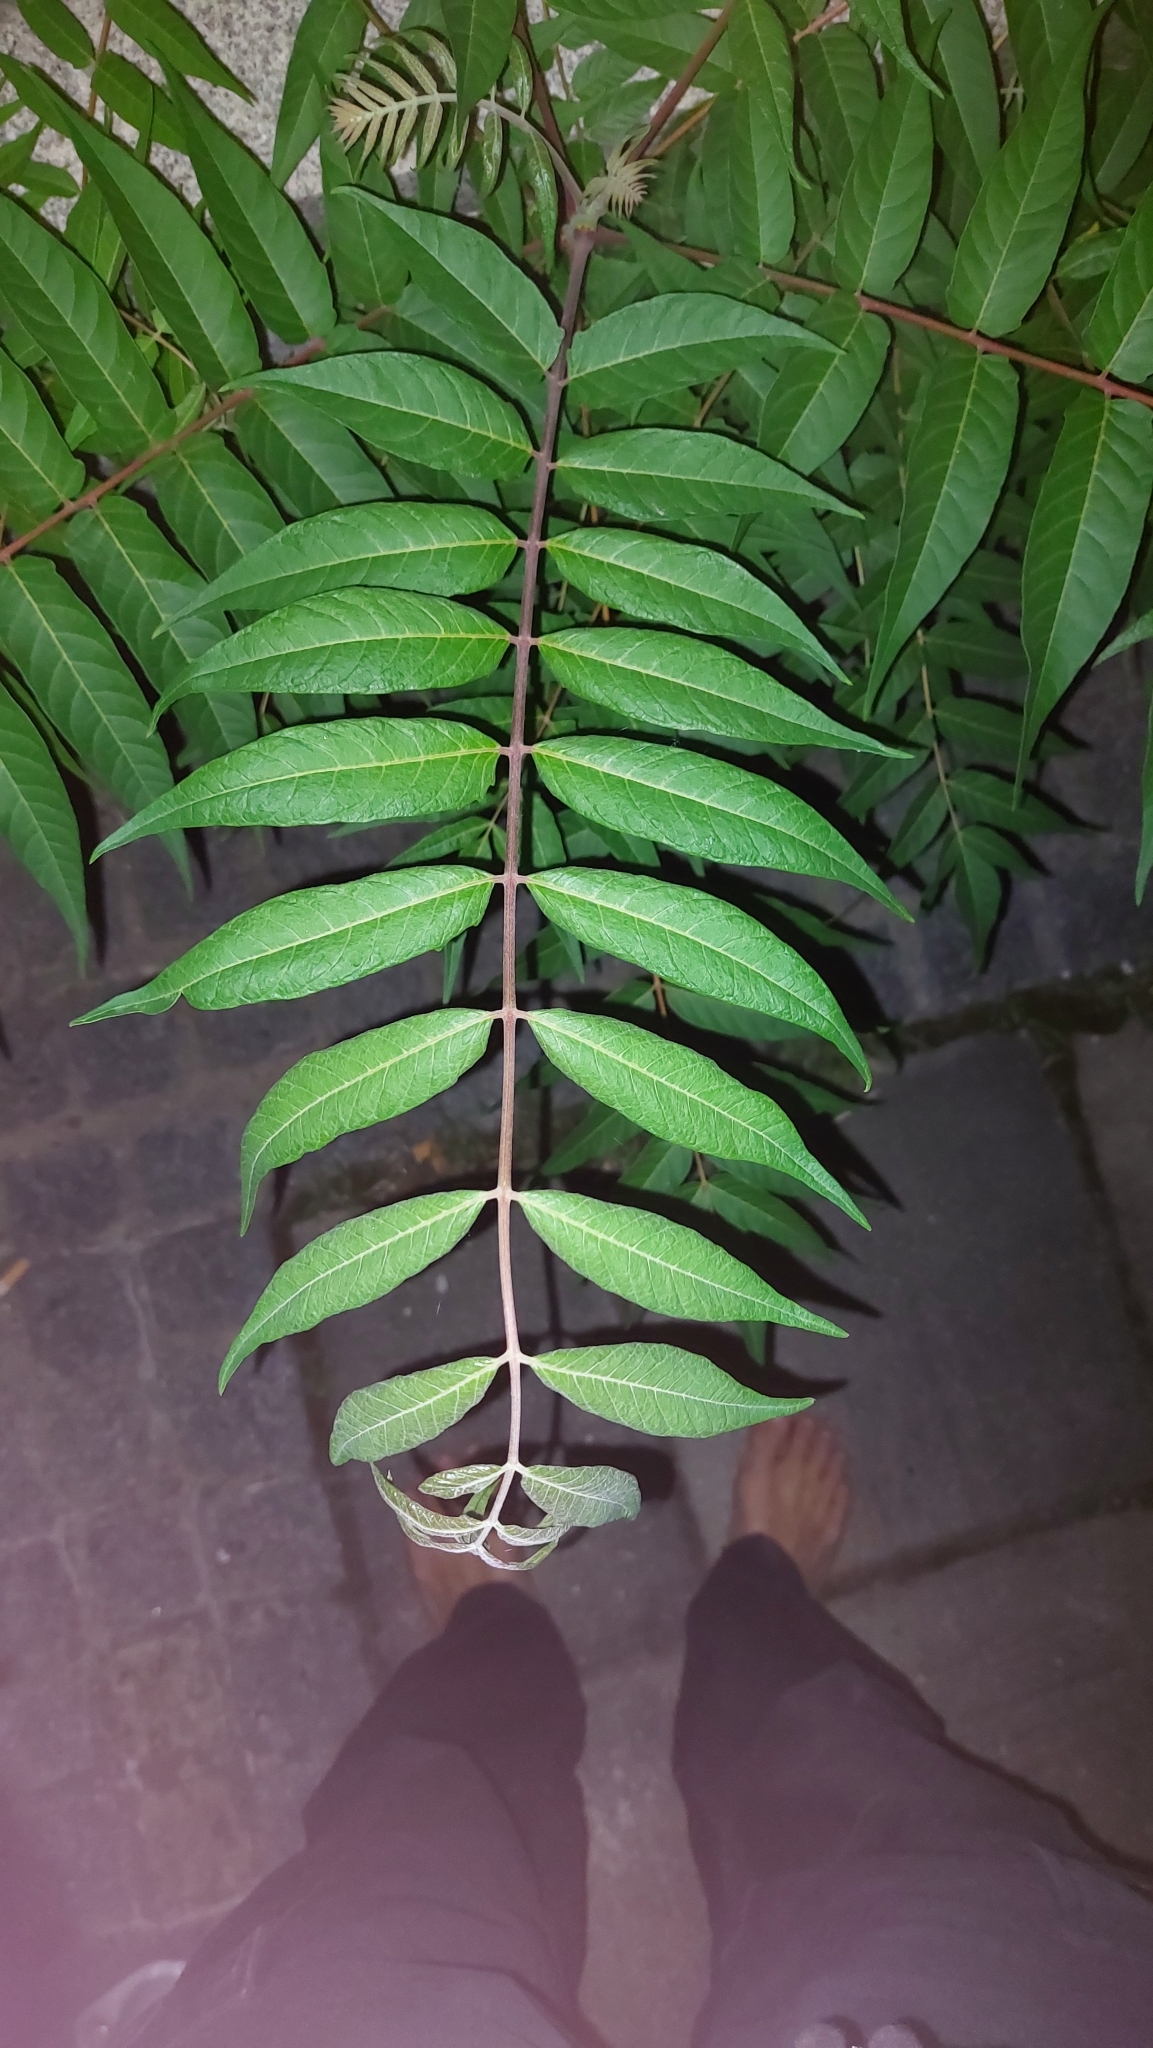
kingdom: Plantae
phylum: Tracheophyta
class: Magnoliopsida
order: Sapindales
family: Simaroubaceae
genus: Ailanthus
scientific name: Ailanthus altissima
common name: Tree-of-heaven
